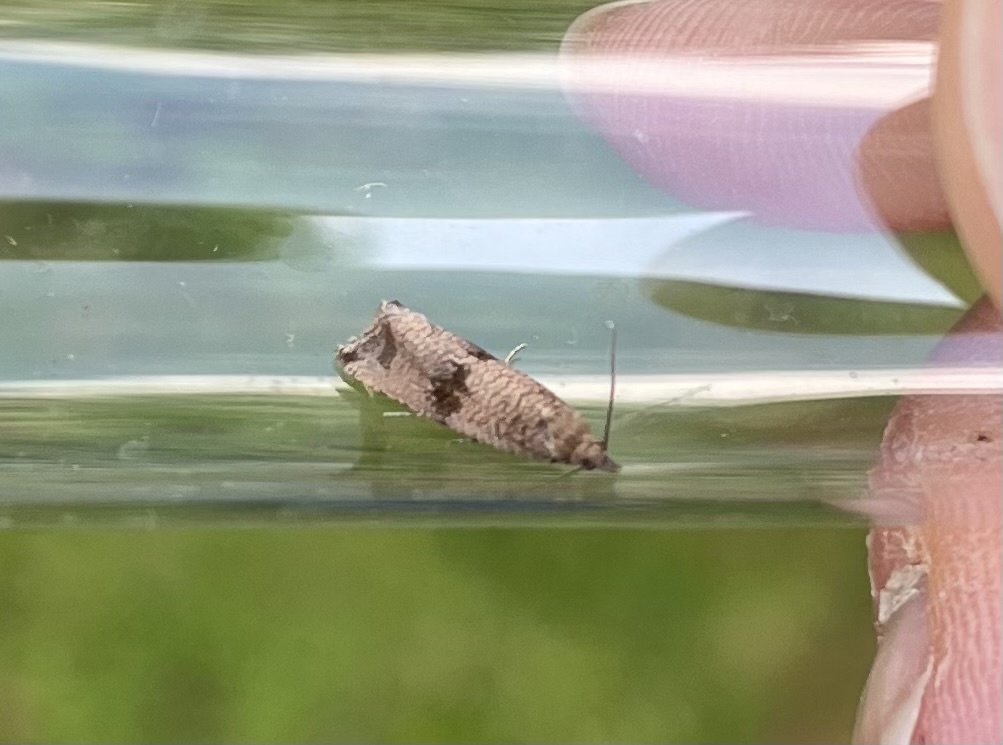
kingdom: Animalia
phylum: Arthropoda
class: Insecta
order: Lepidoptera
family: Tortricidae
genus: Celypha
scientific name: Celypha striana
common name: Barred marble
